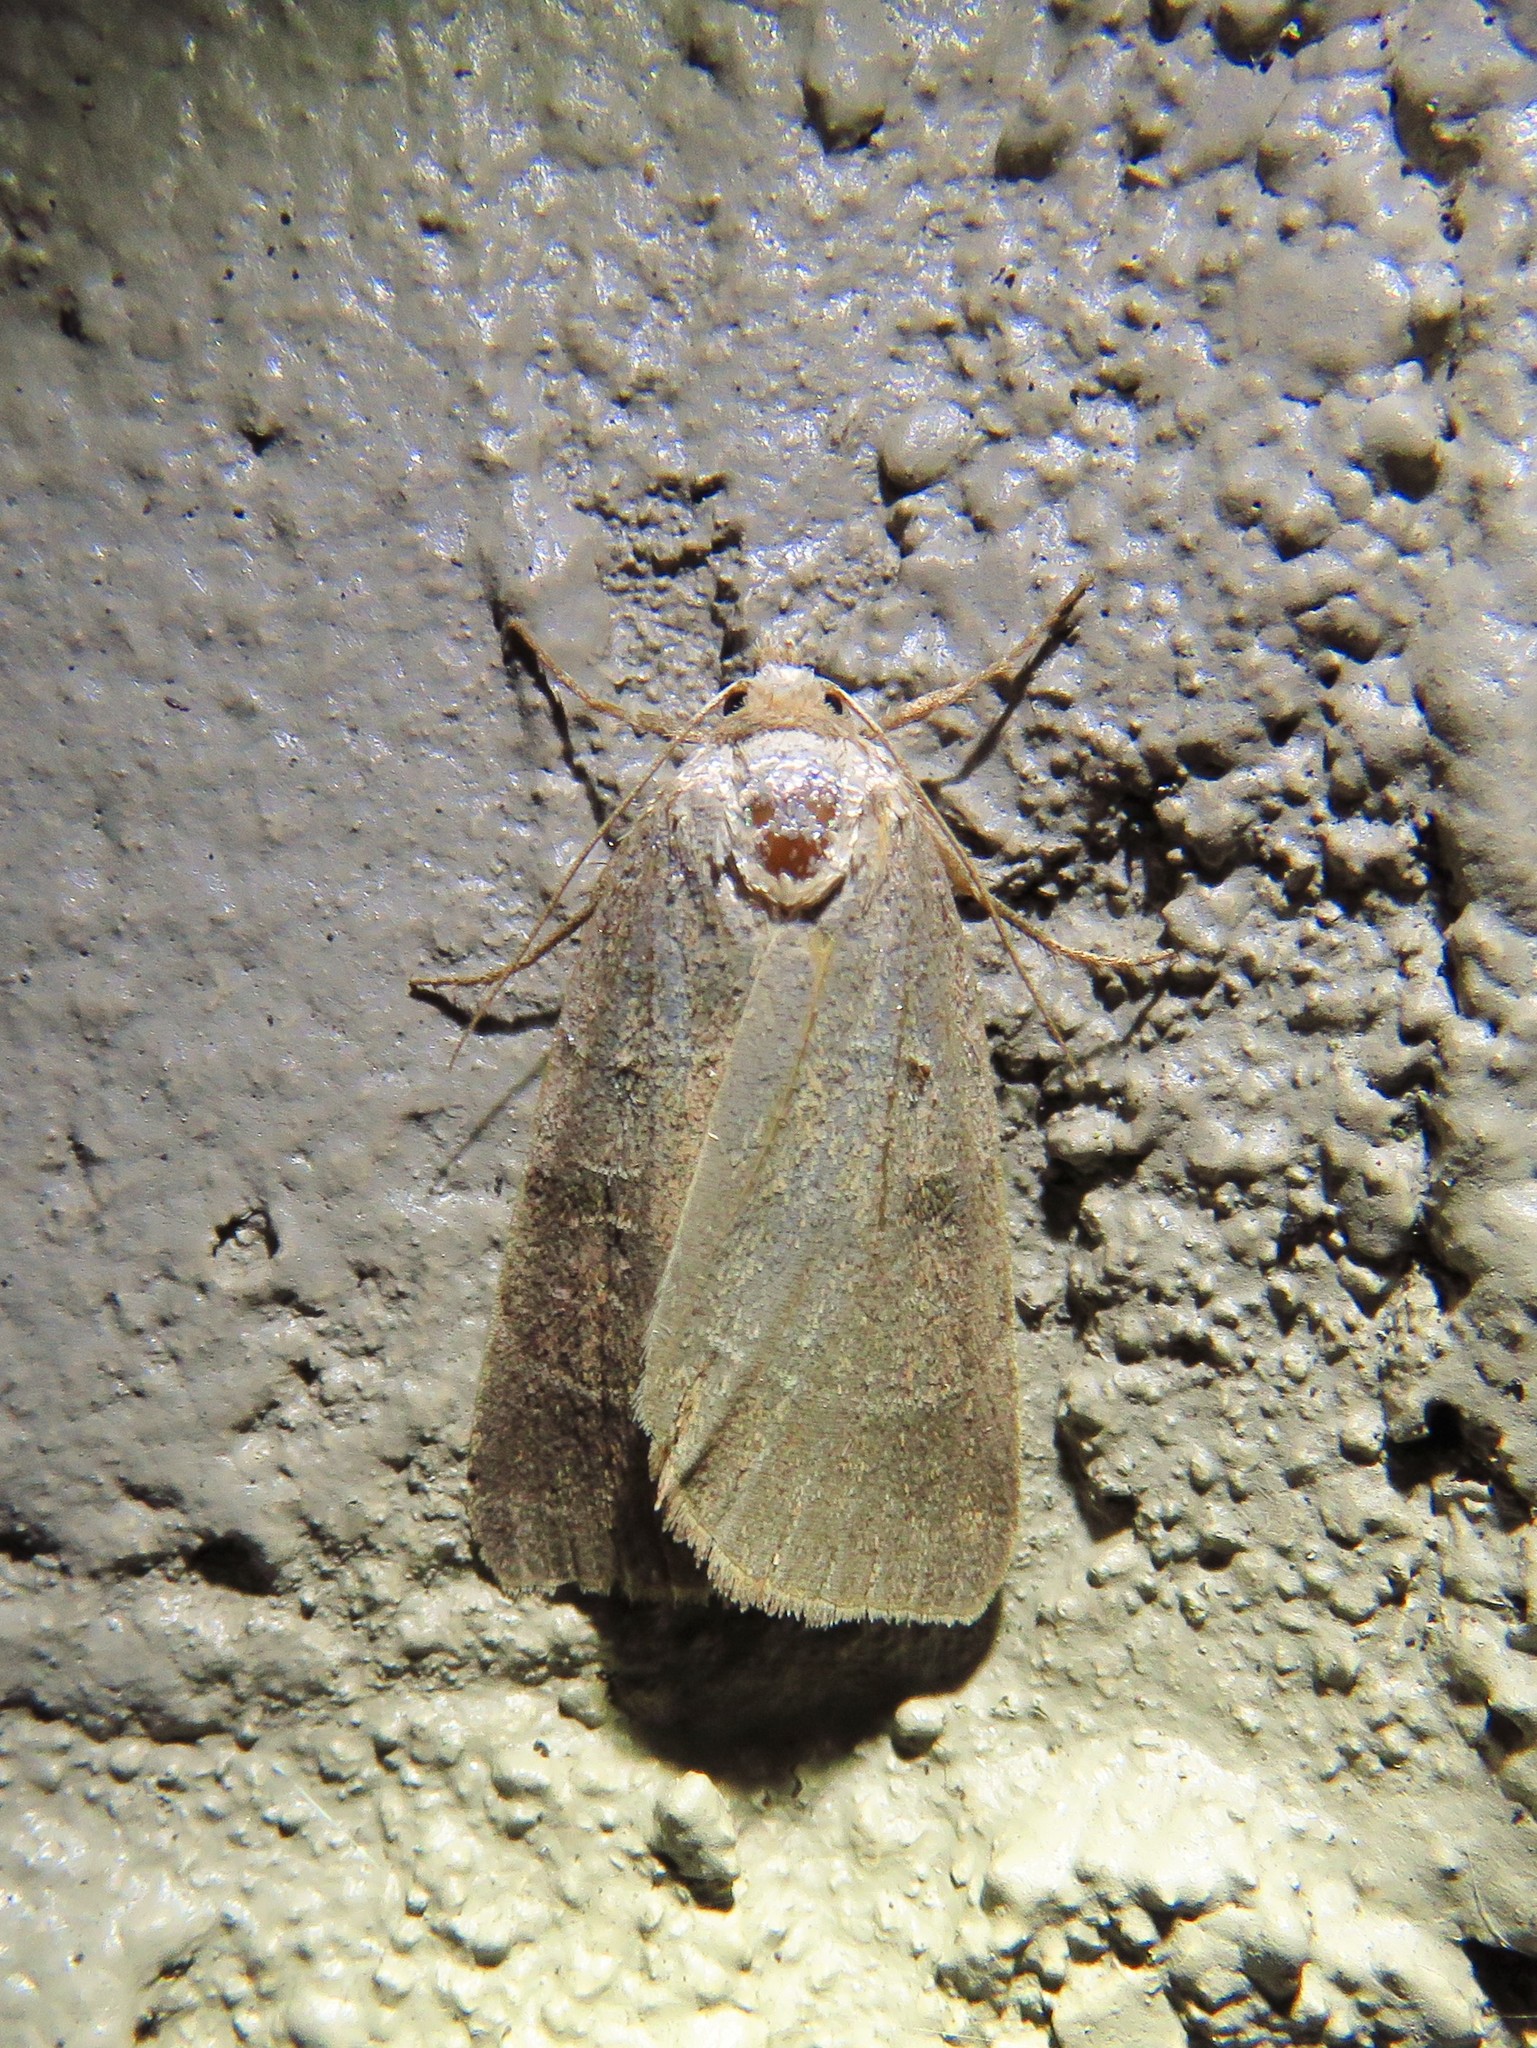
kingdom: Animalia
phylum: Arthropoda
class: Insecta
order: Lepidoptera
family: Noctuidae
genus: Agnorisma
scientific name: Agnorisma badinodis
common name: Pale-banded dart
